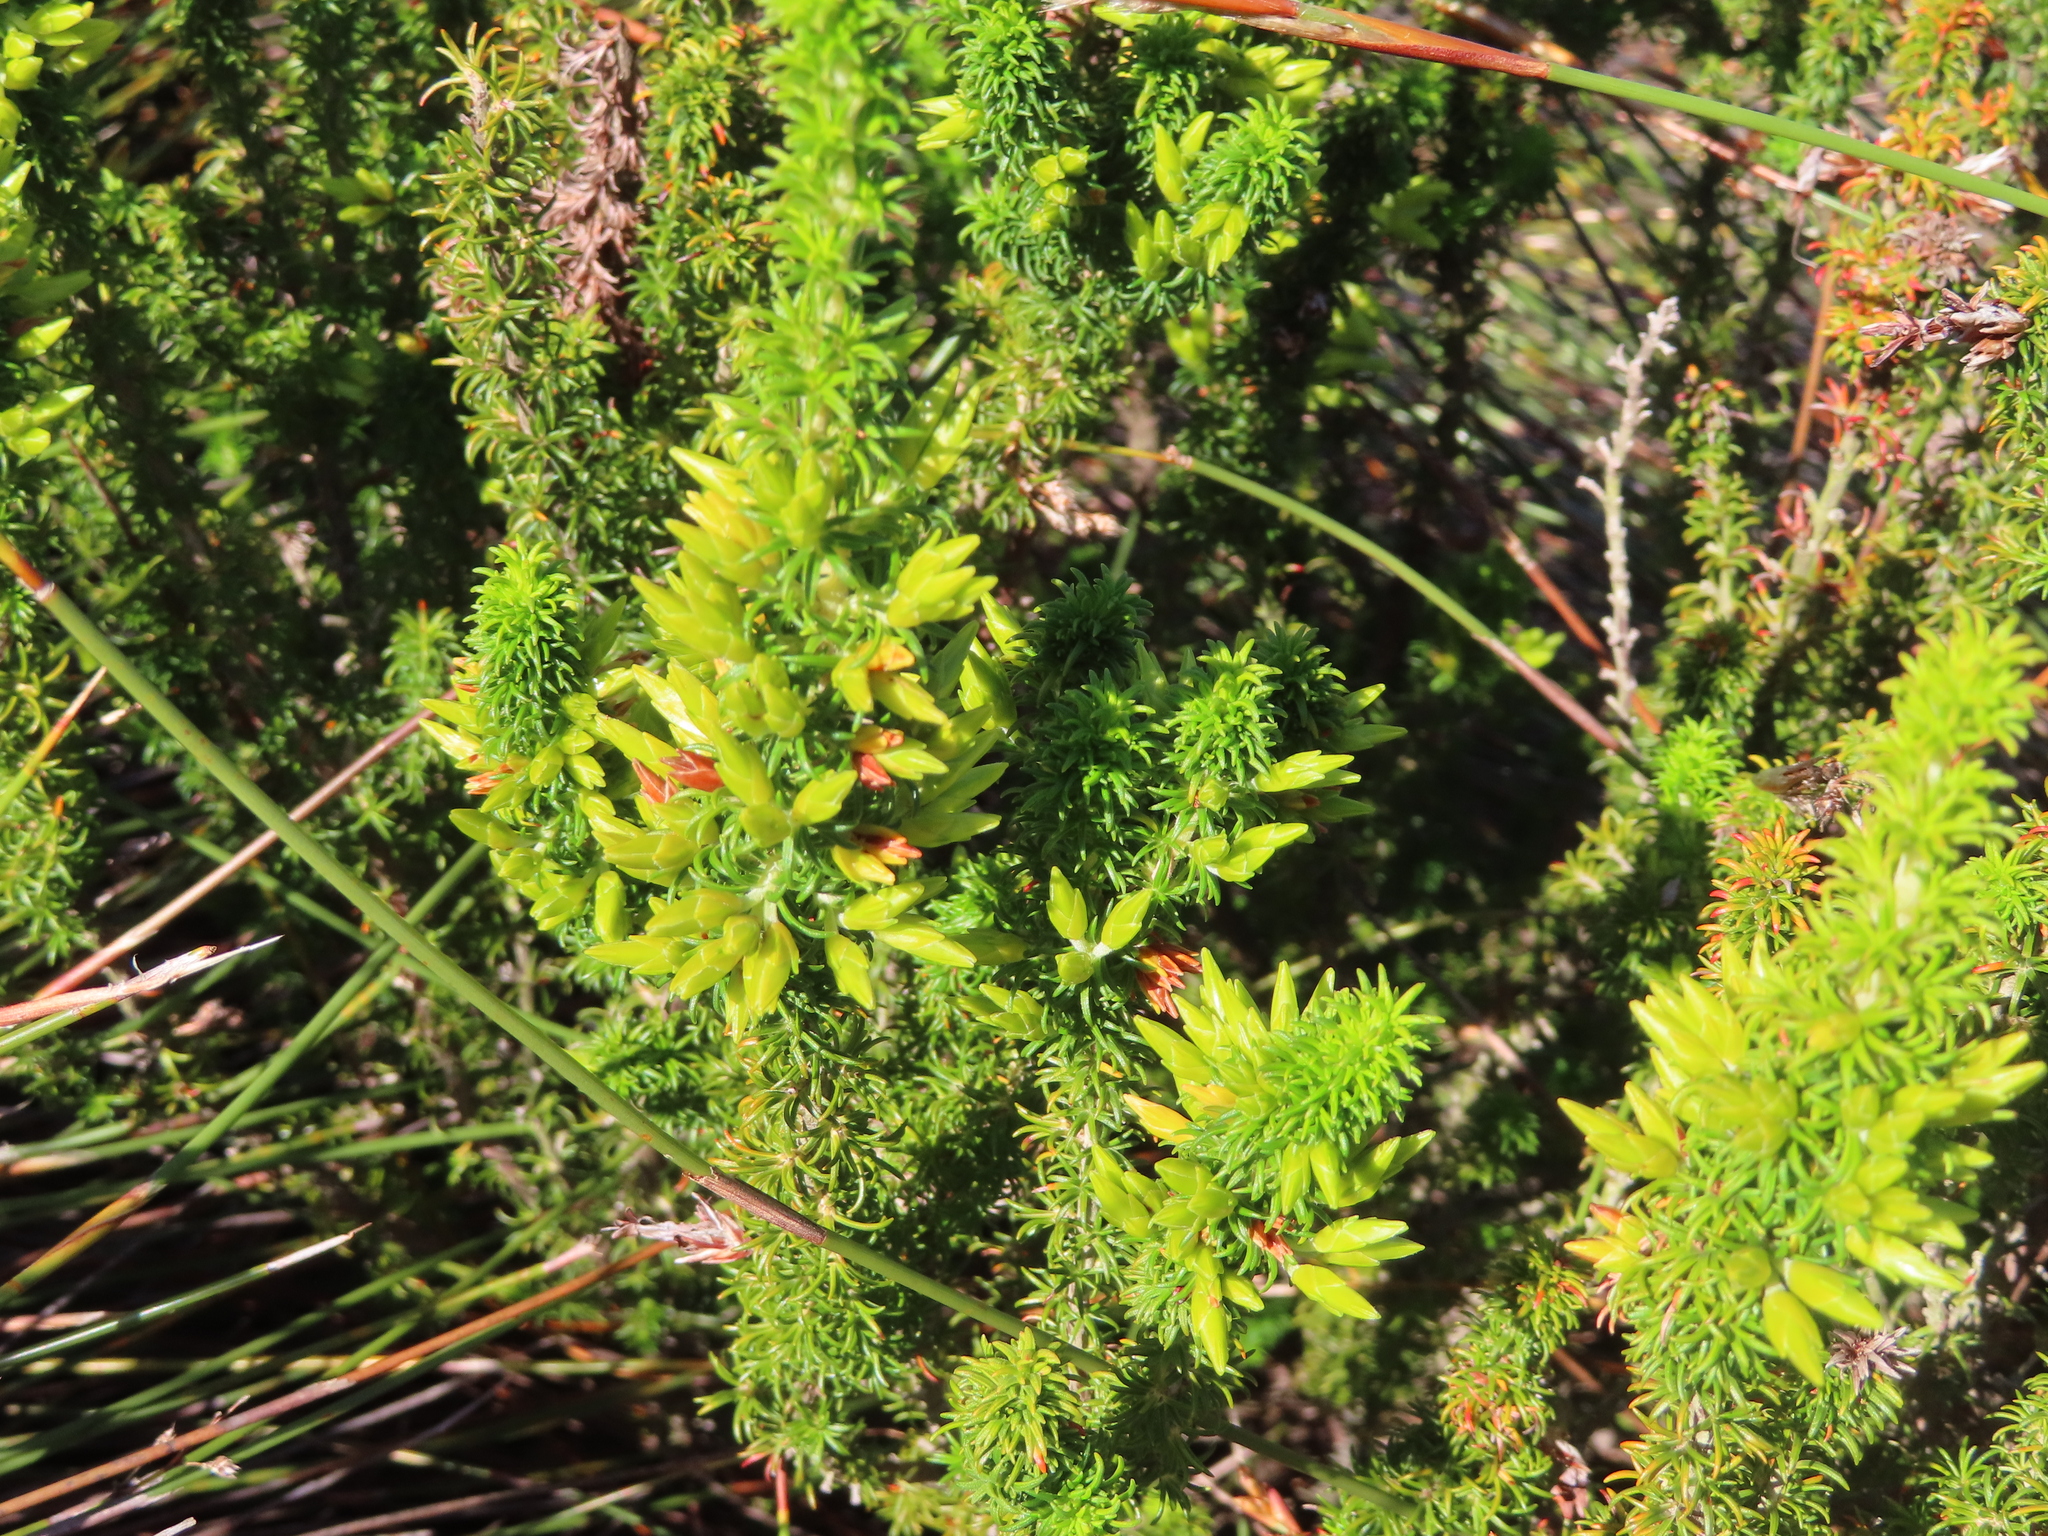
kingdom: Plantae
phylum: Tracheophyta
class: Magnoliopsida
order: Ericales
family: Ericaceae
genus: Erica
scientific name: Erica coccinea
